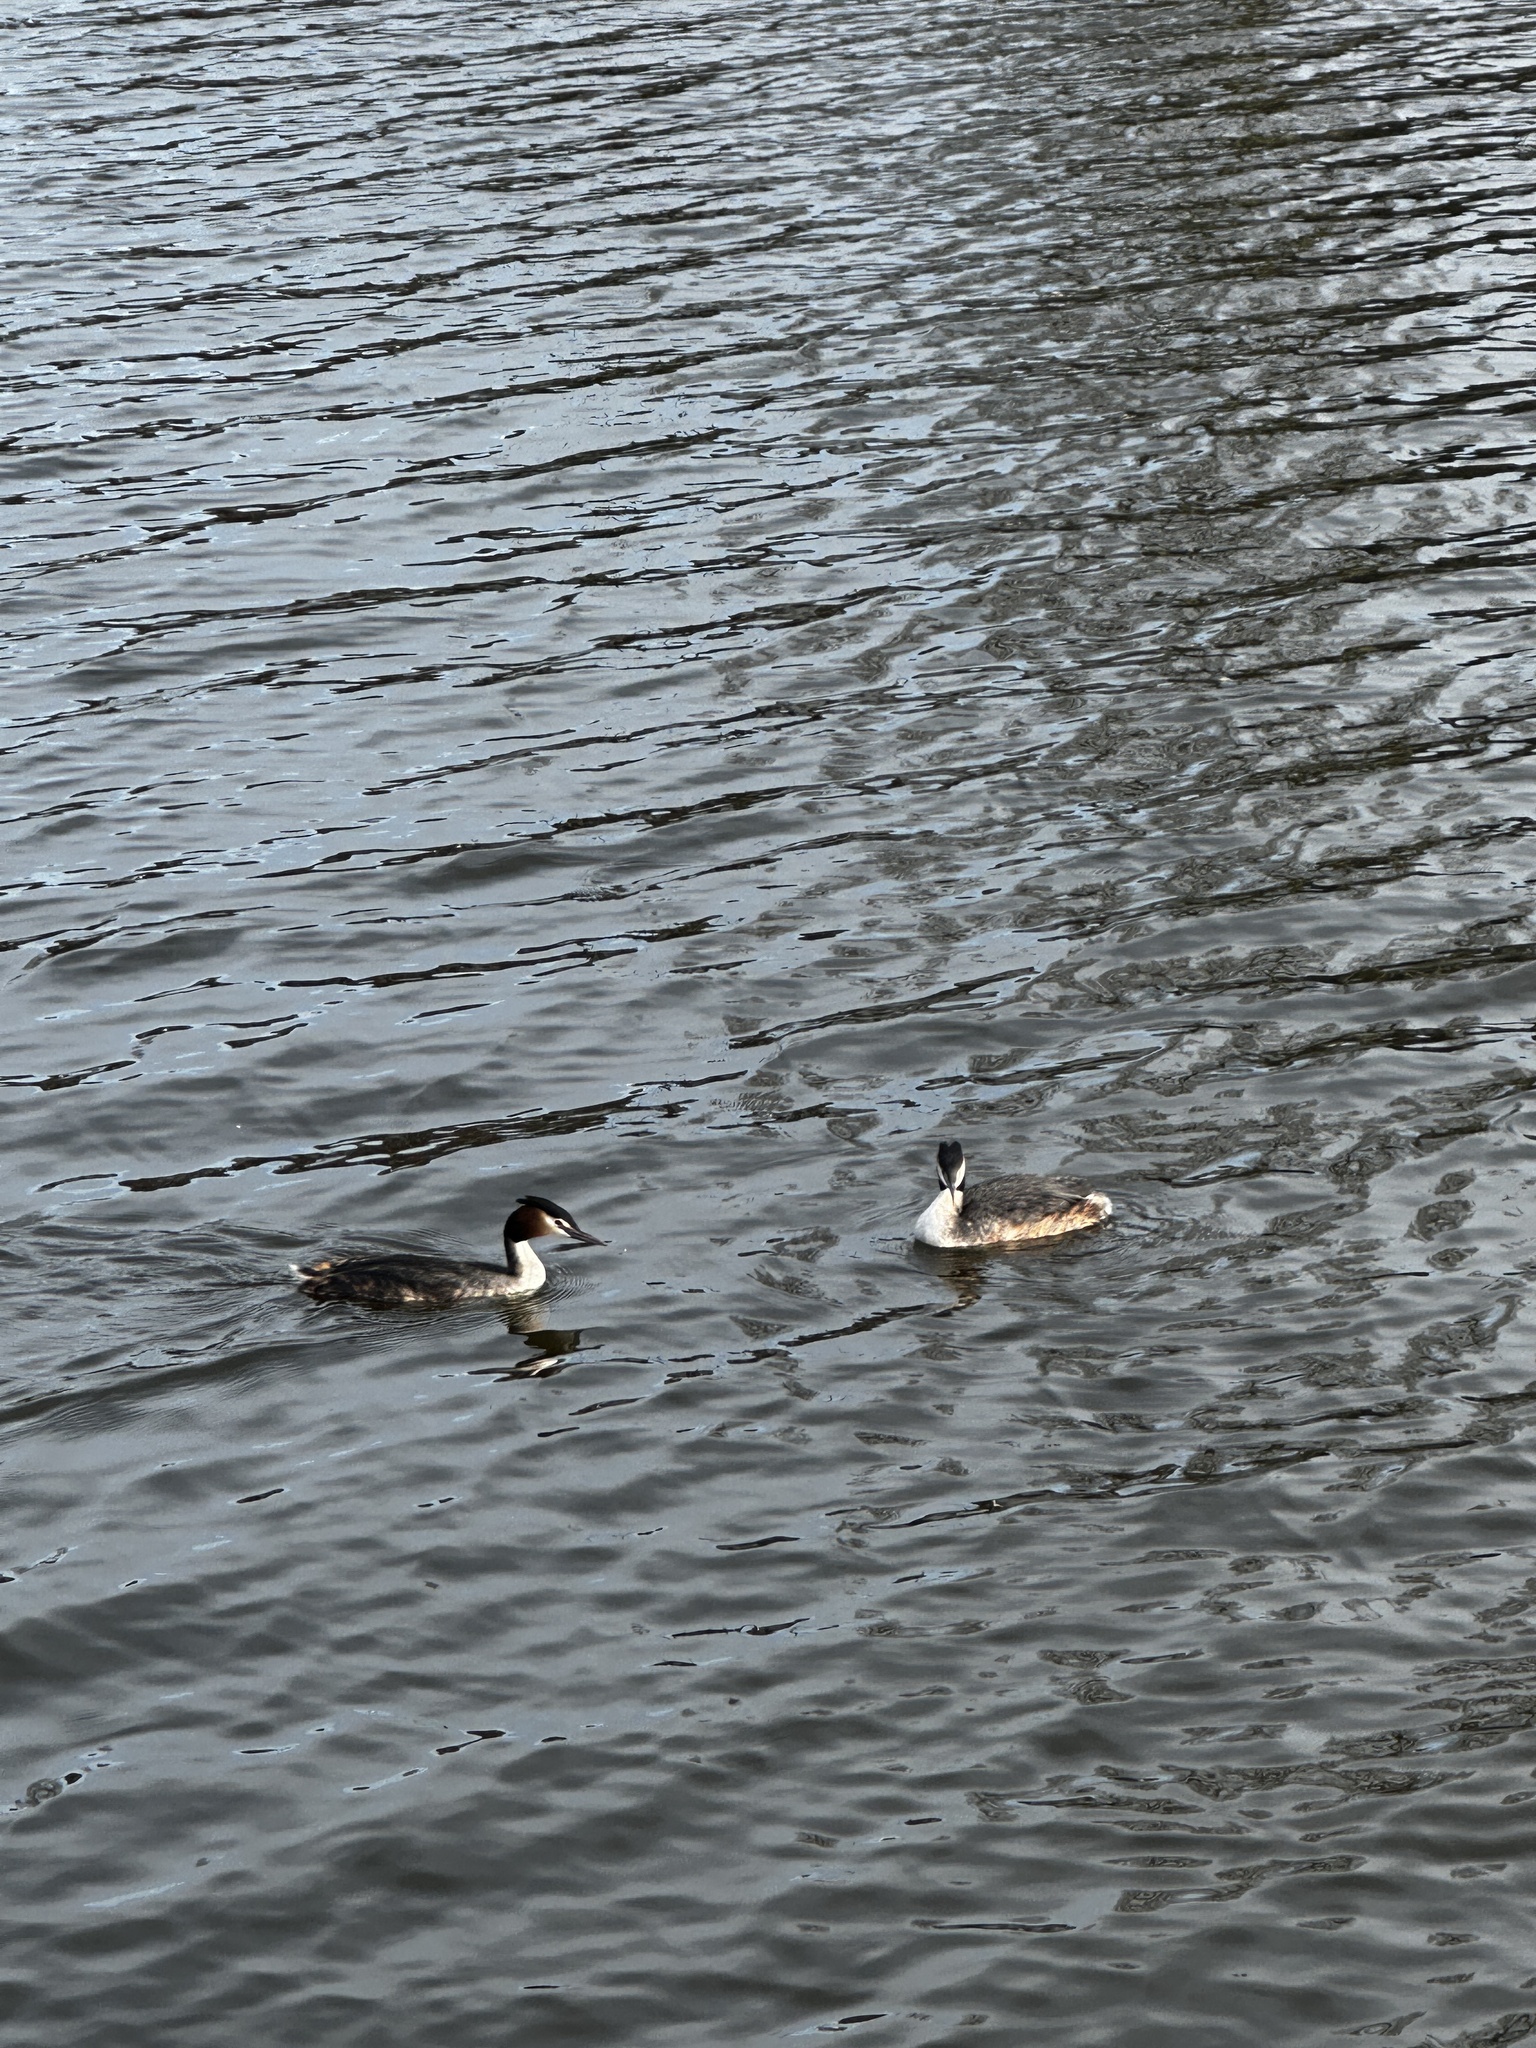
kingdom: Animalia
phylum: Chordata
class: Aves
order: Podicipediformes
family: Podicipedidae
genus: Podiceps
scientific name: Podiceps cristatus
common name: Great crested grebe
